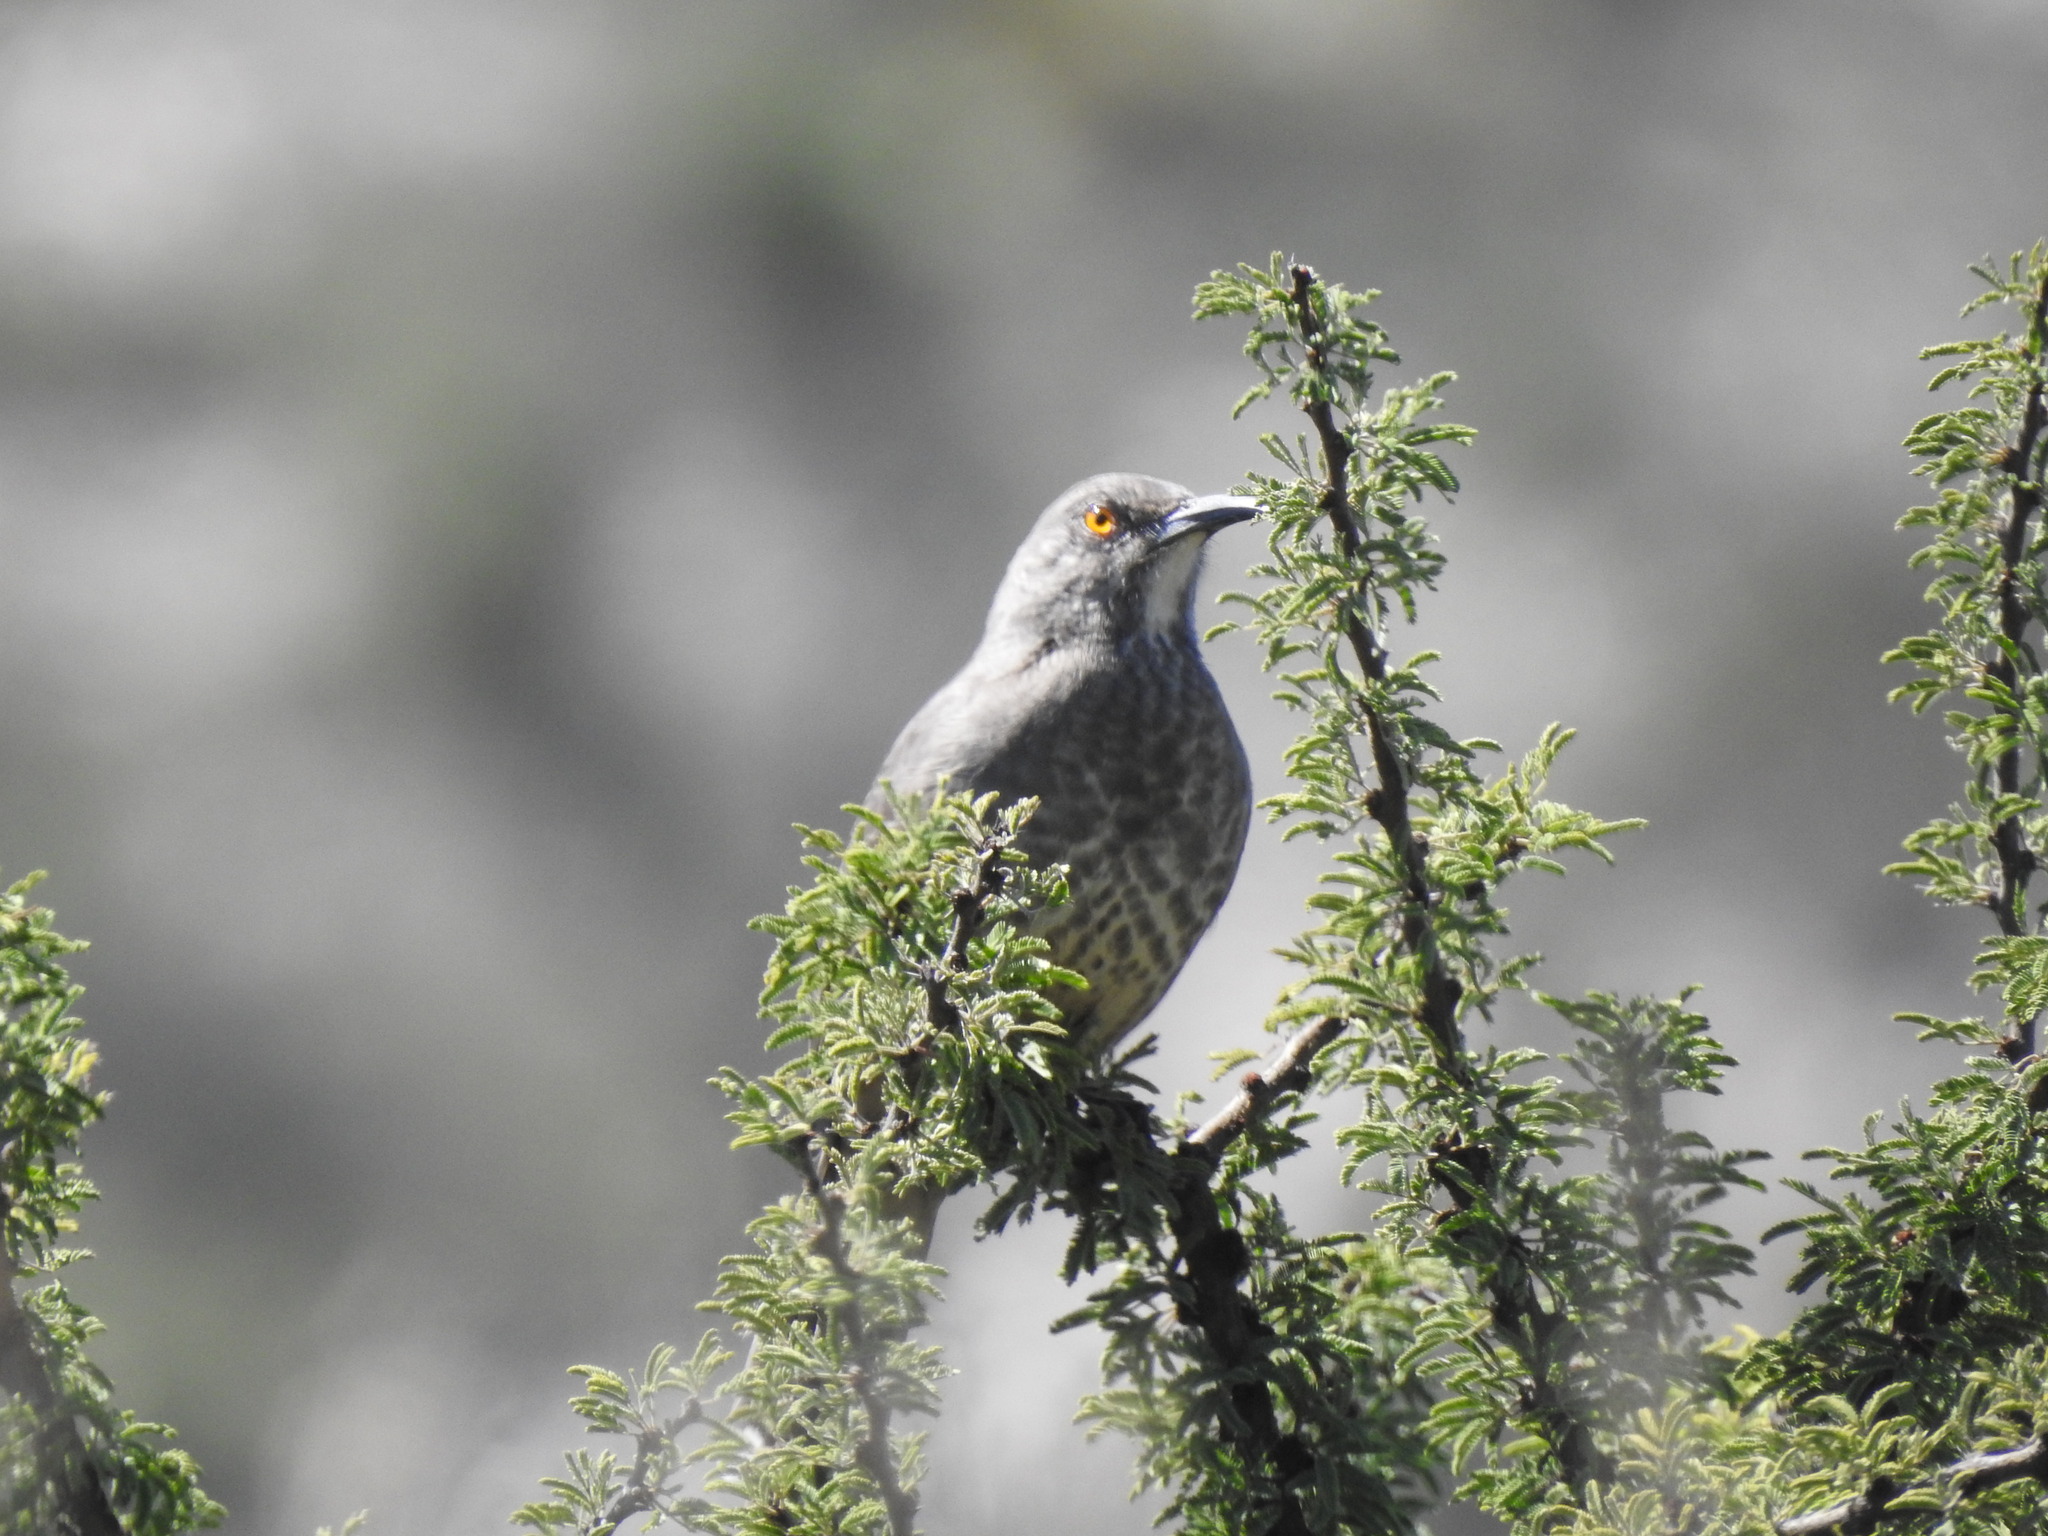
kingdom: Animalia
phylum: Chordata
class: Aves
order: Passeriformes
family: Mimidae
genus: Toxostoma
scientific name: Toxostoma curvirostre
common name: Curve-billed thrasher
